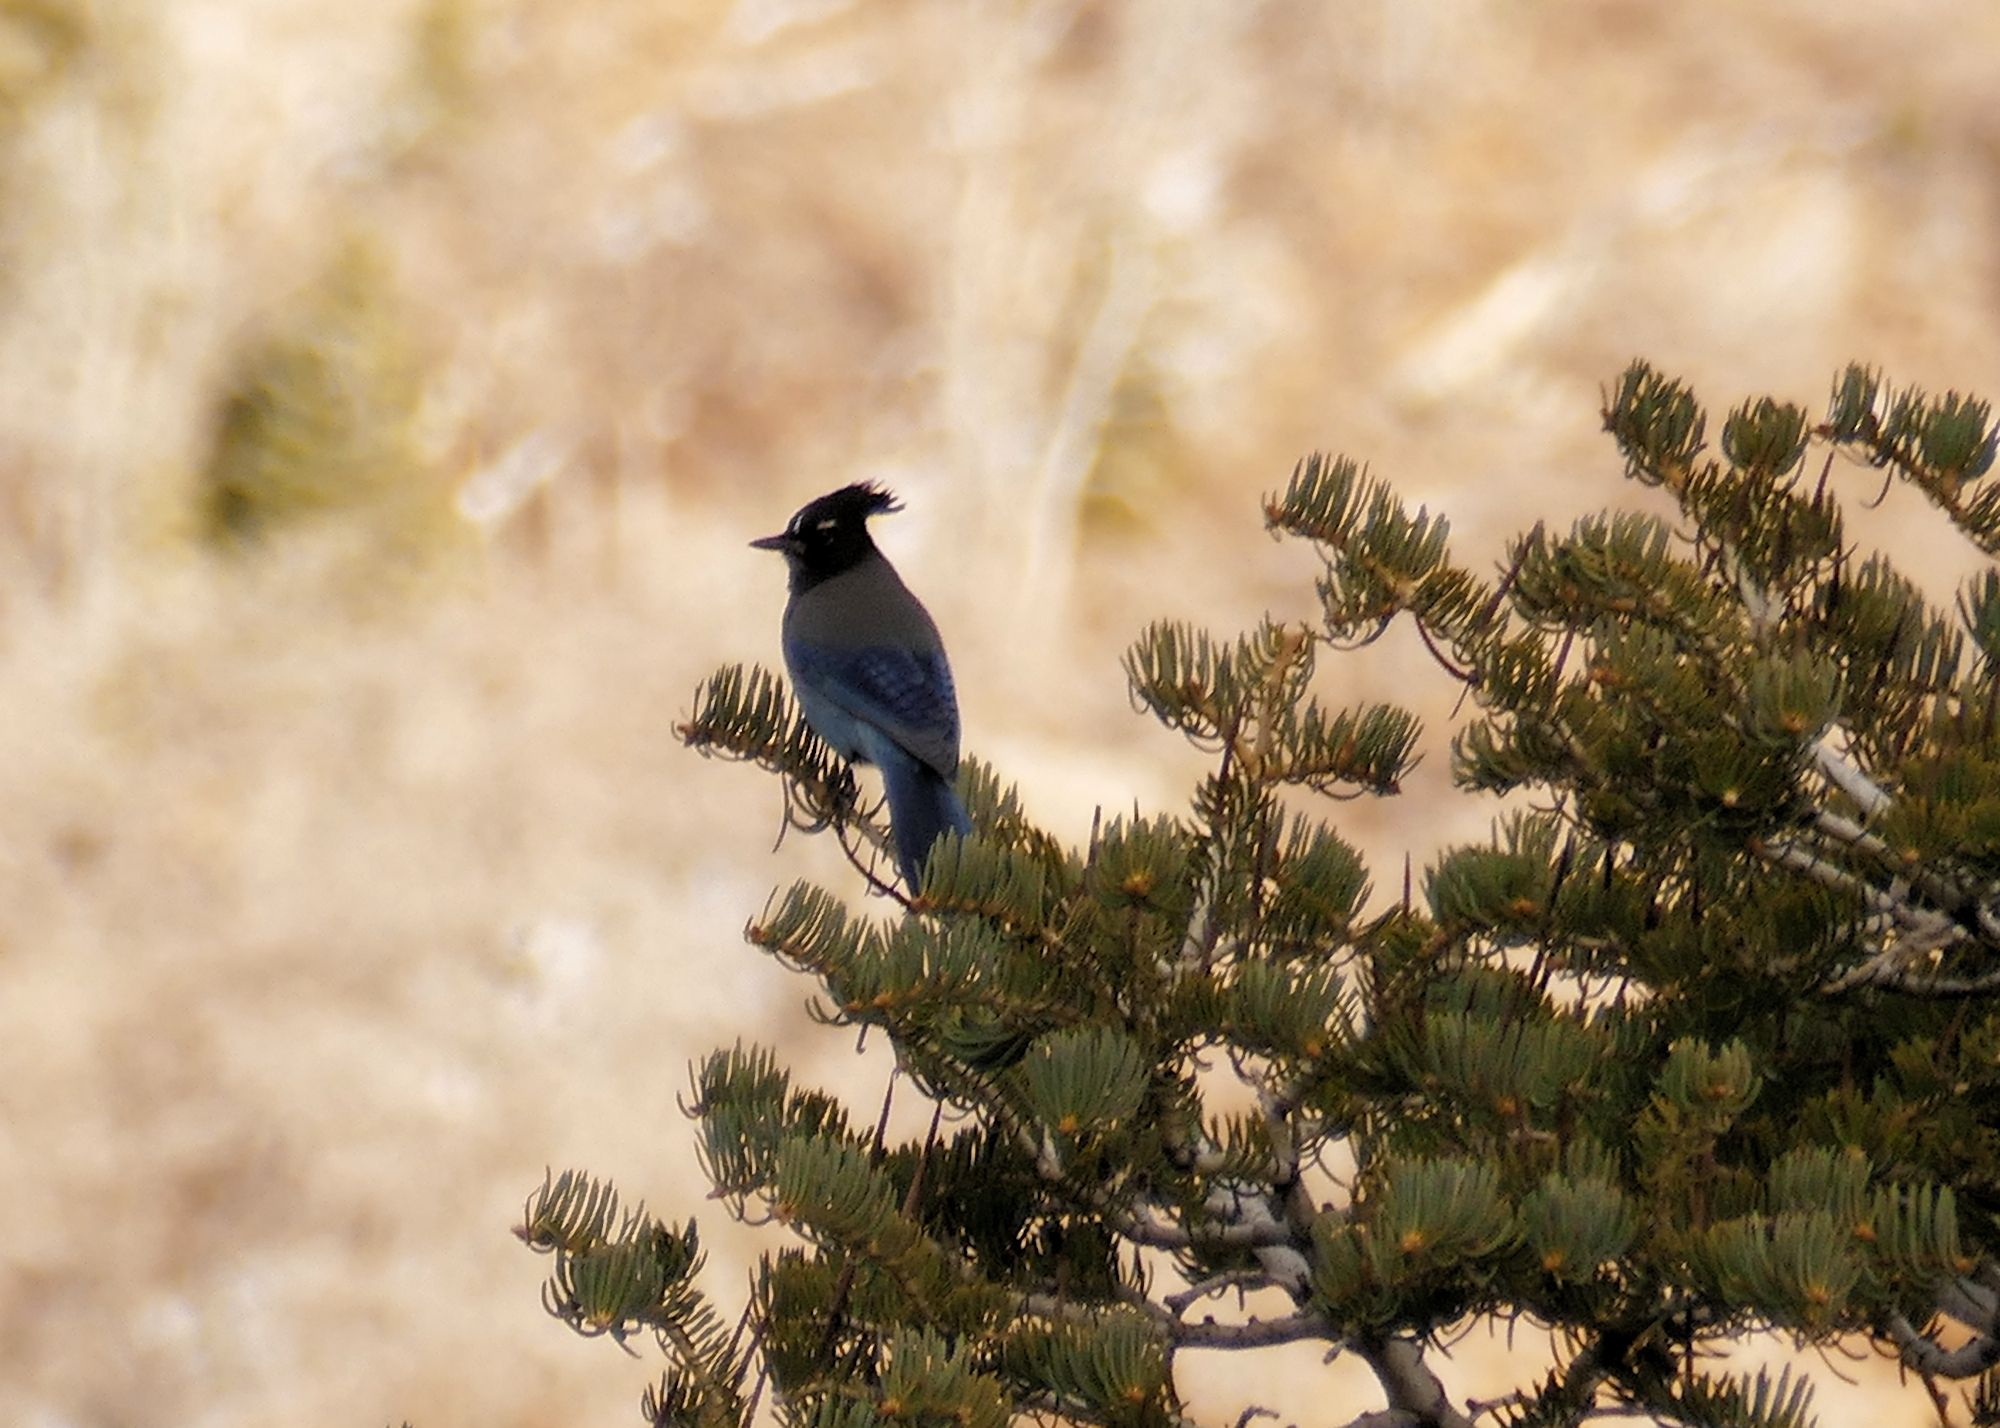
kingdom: Animalia
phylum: Chordata
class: Aves
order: Passeriformes
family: Corvidae
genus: Cyanocitta
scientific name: Cyanocitta stelleri
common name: Steller's jay
